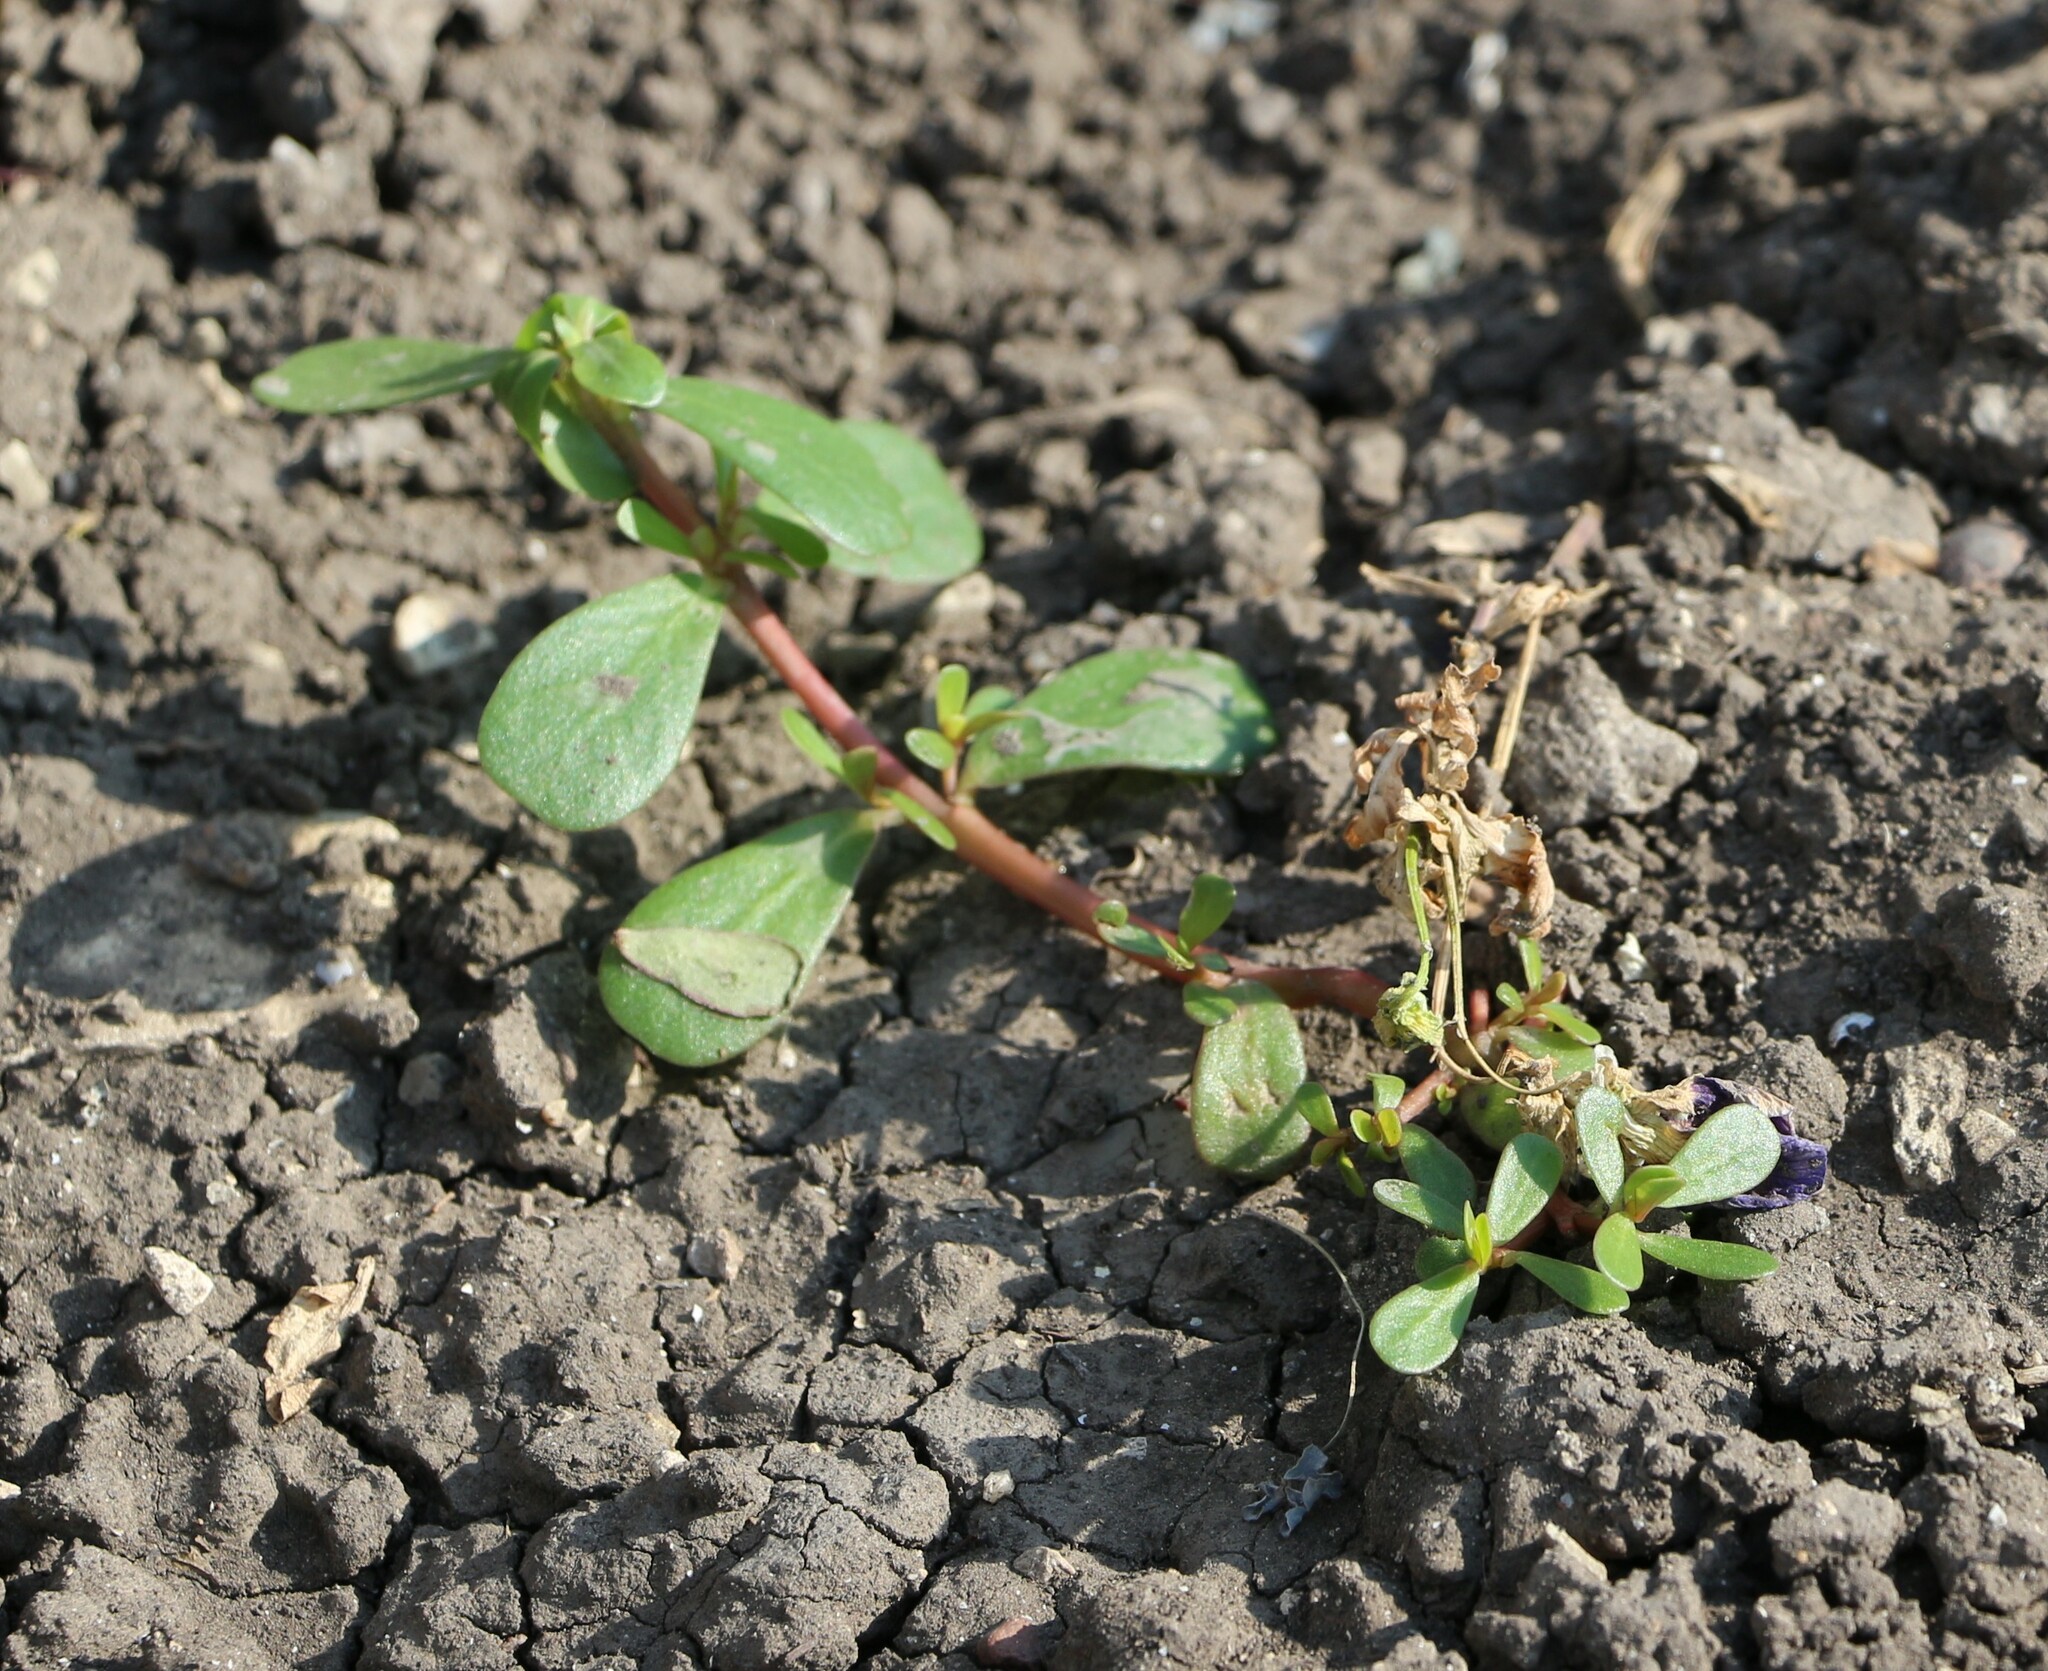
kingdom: Plantae
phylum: Tracheophyta
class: Magnoliopsida
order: Caryophyllales
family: Portulacaceae
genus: Portulaca
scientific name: Portulaca oleracea
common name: Common purslane
